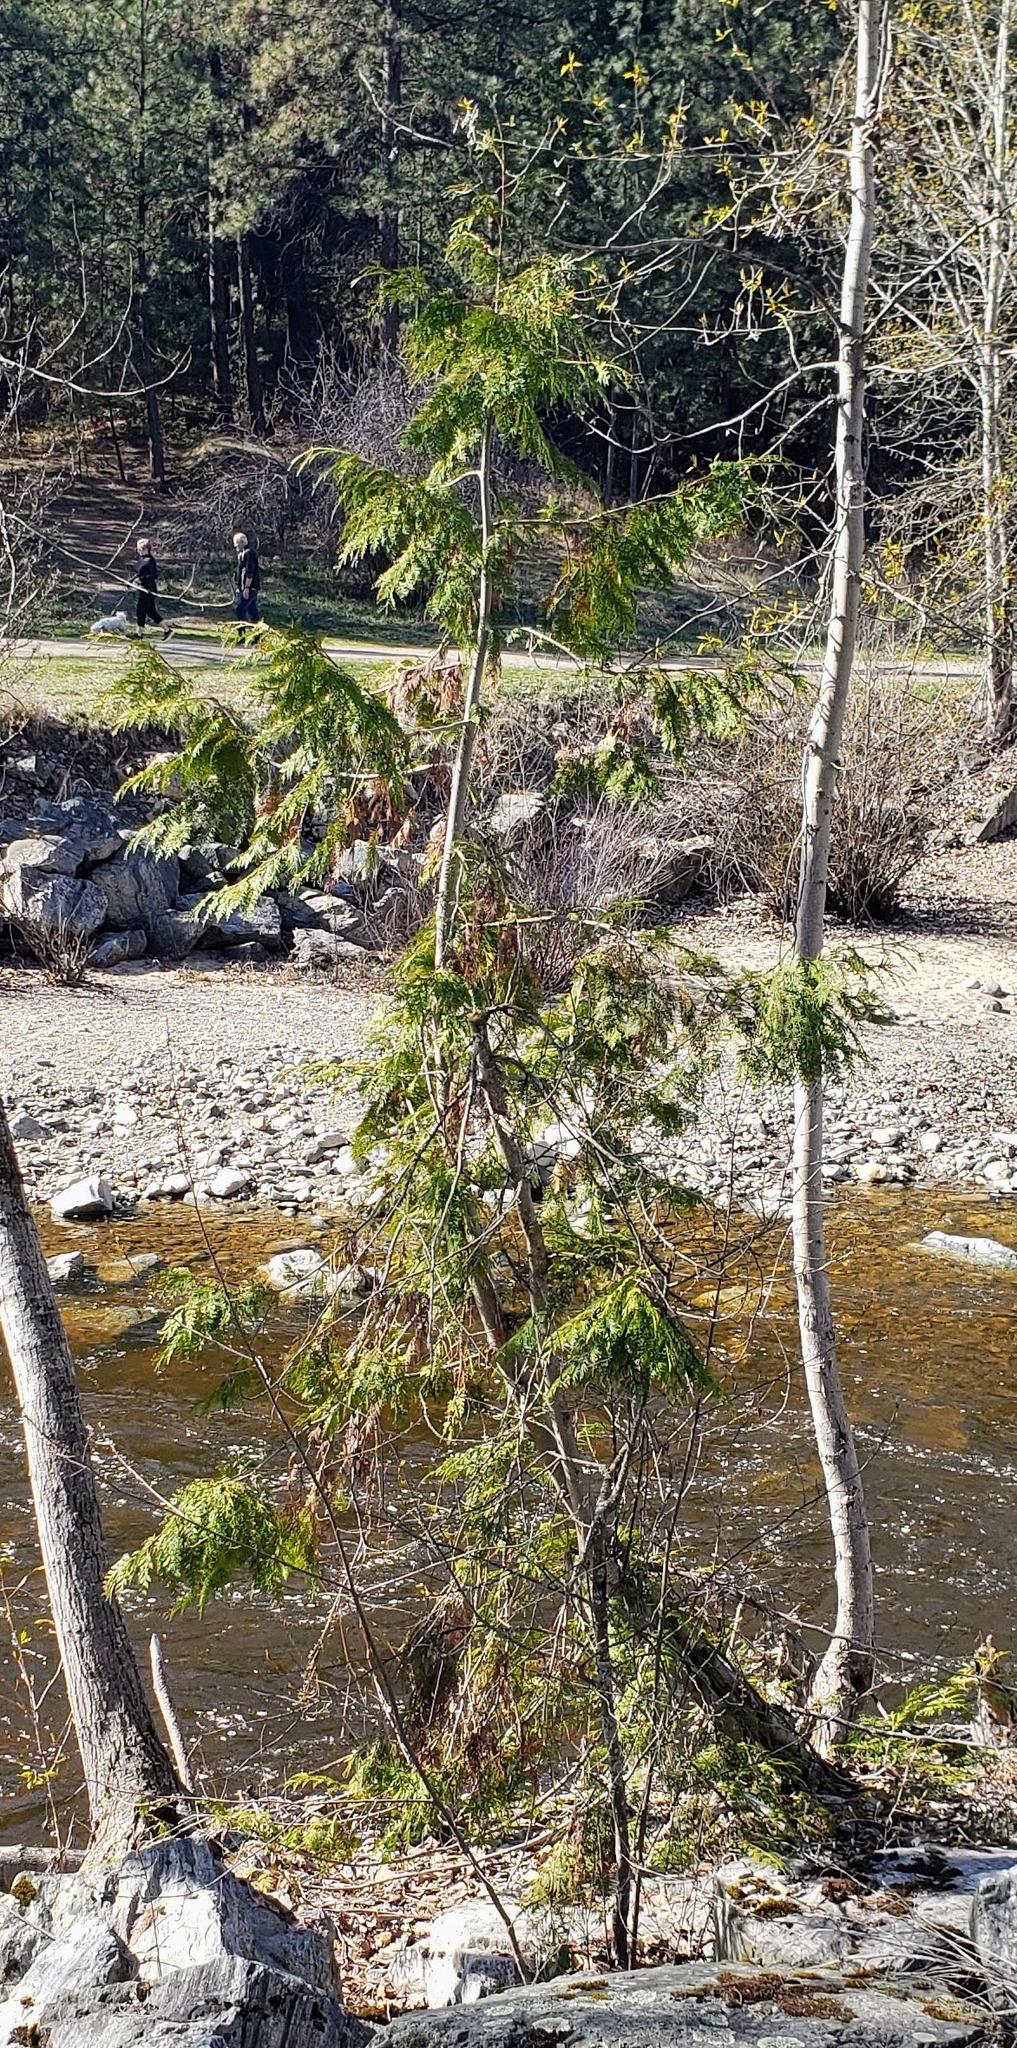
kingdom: Plantae
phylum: Tracheophyta
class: Pinopsida
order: Pinales
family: Cupressaceae
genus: Thuja
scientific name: Thuja plicata
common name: Western red-cedar
